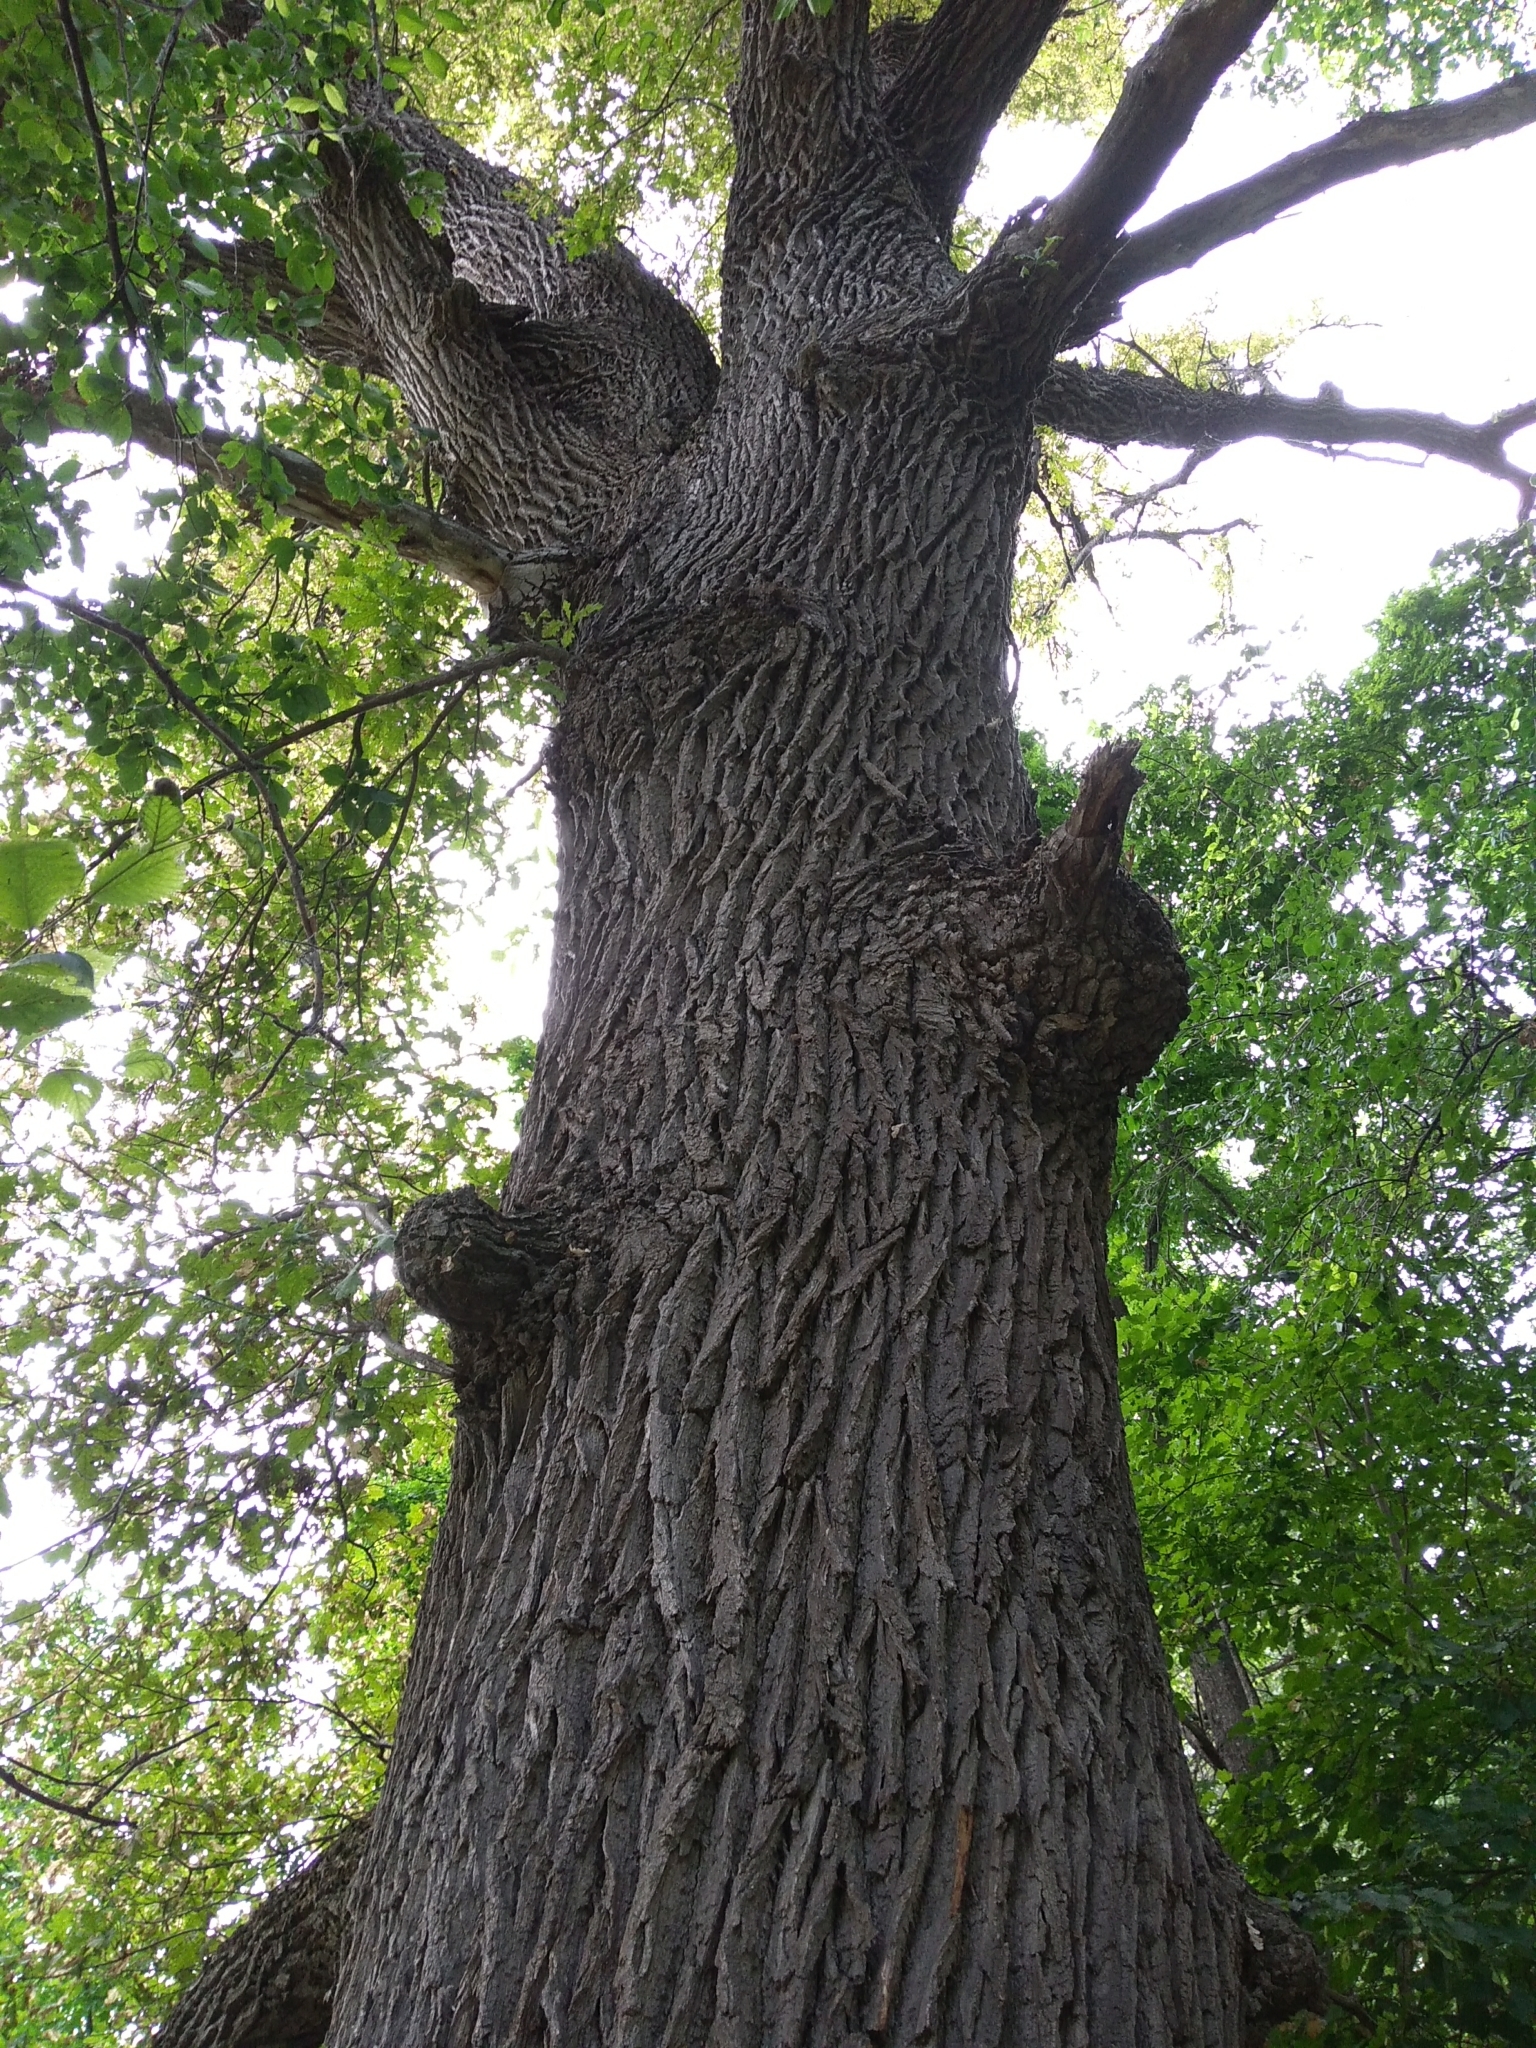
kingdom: Plantae
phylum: Tracheophyta
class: Magnoliopsida
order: Fagales
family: Fagaceae
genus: Quercus
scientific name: Quercus robur
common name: Pedunculate oak
